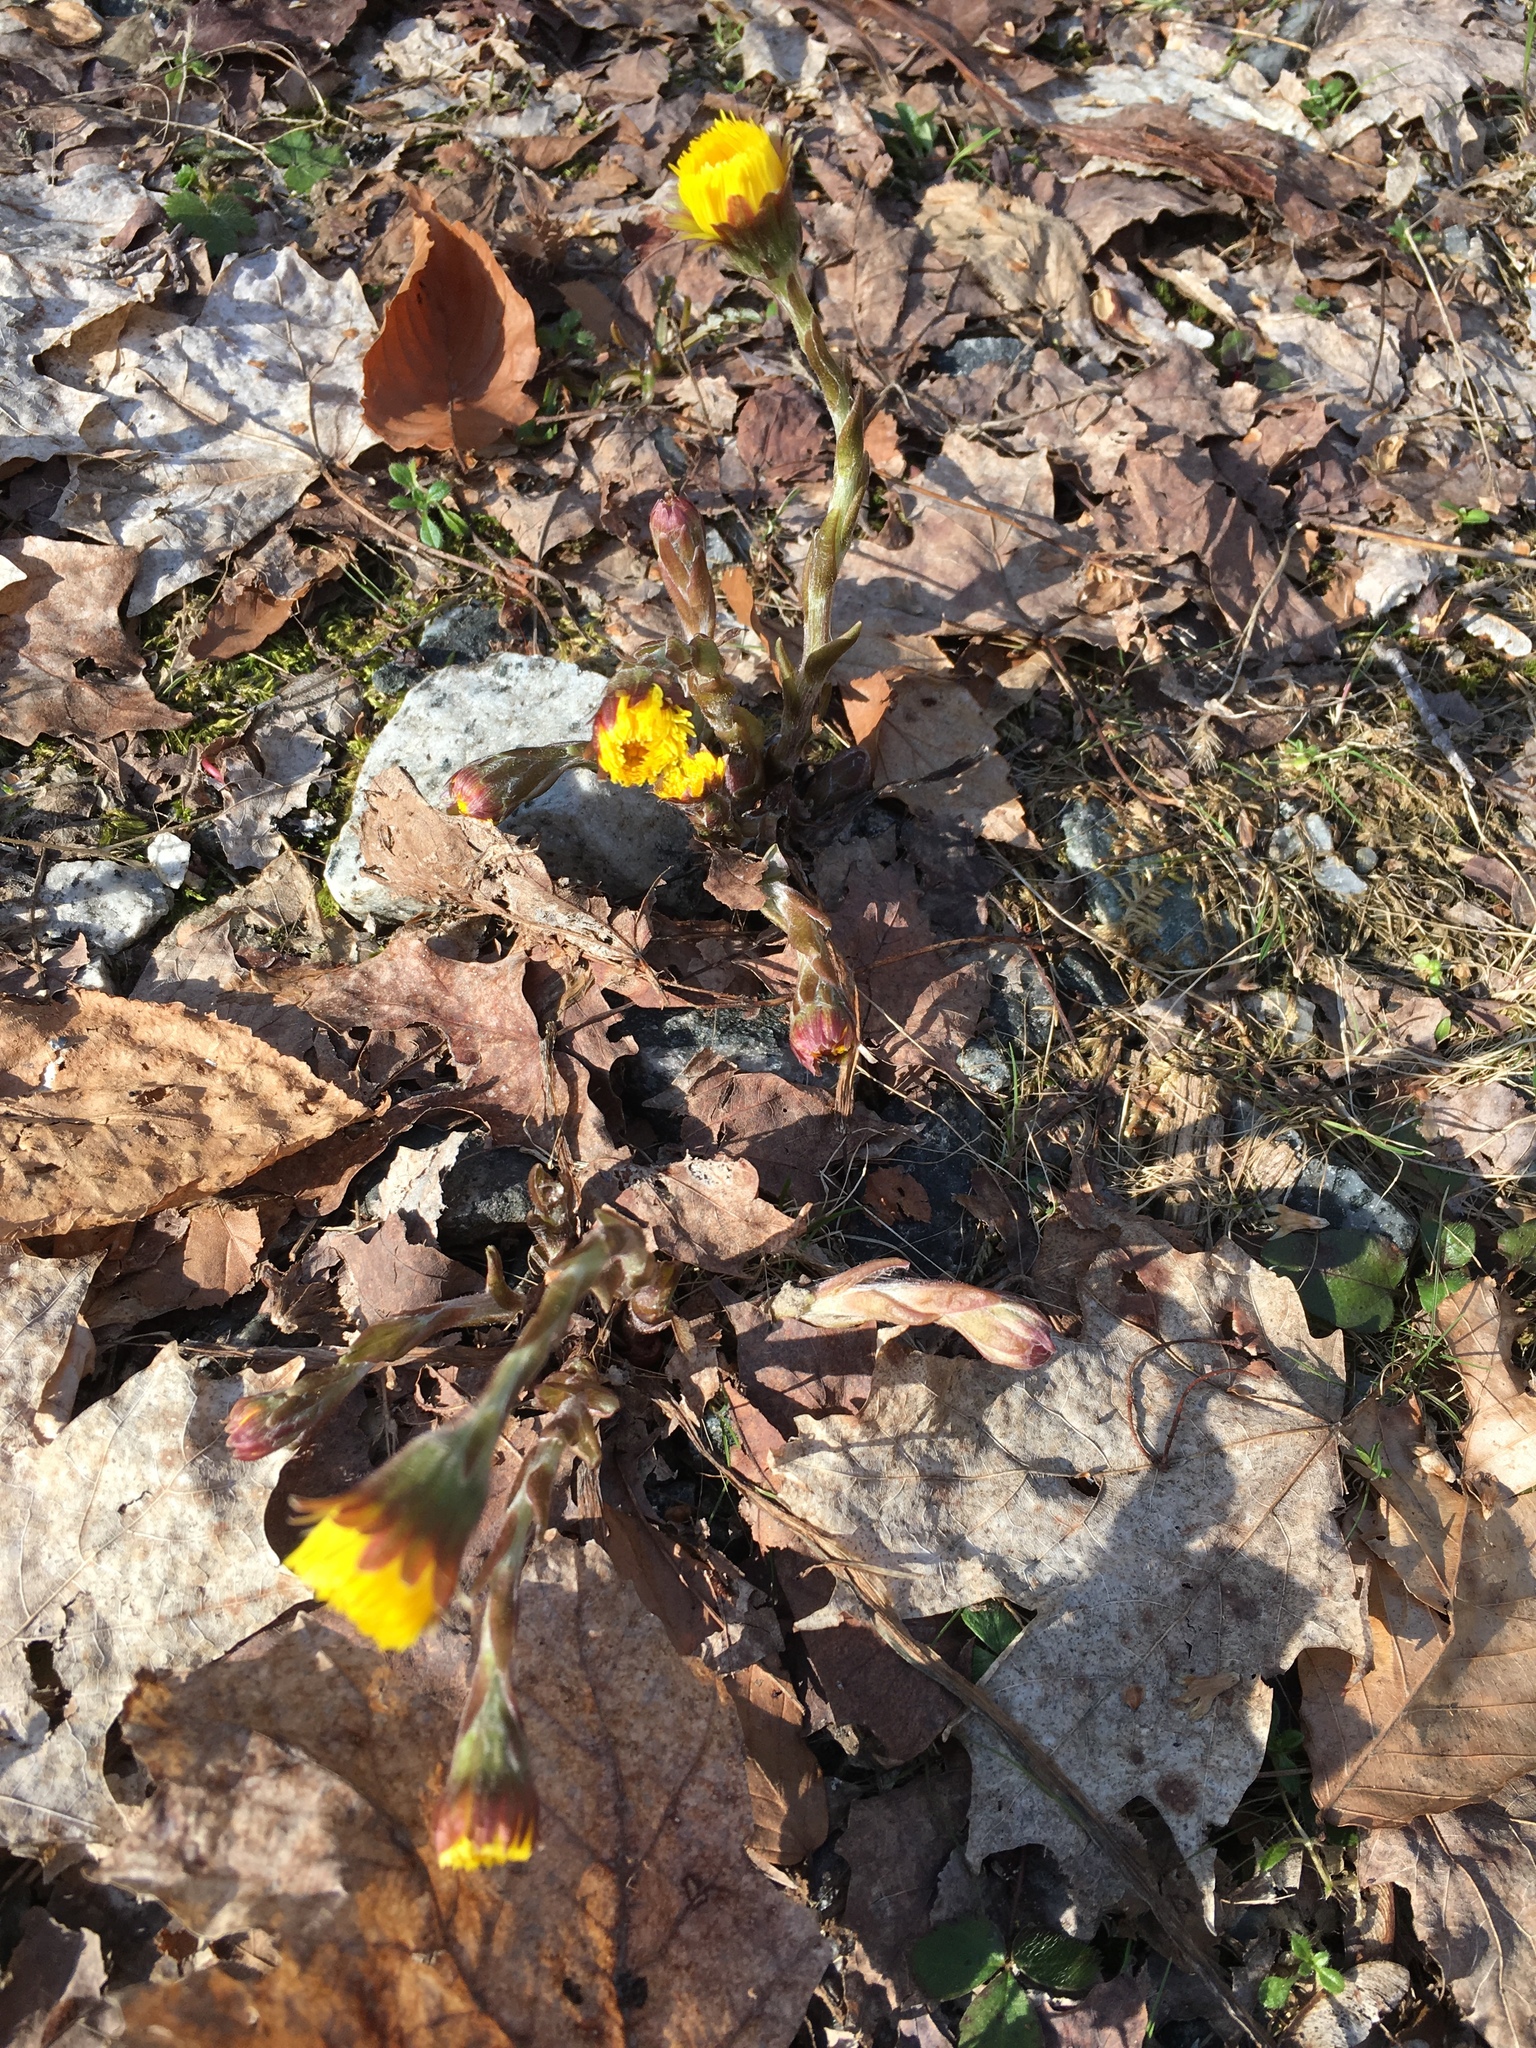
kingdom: Plantae
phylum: Tracheophyta
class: Magnoliopsida
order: Asterales
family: Asteraceae
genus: Tussilago
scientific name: Tussilago farfara
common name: Coltsfoot
